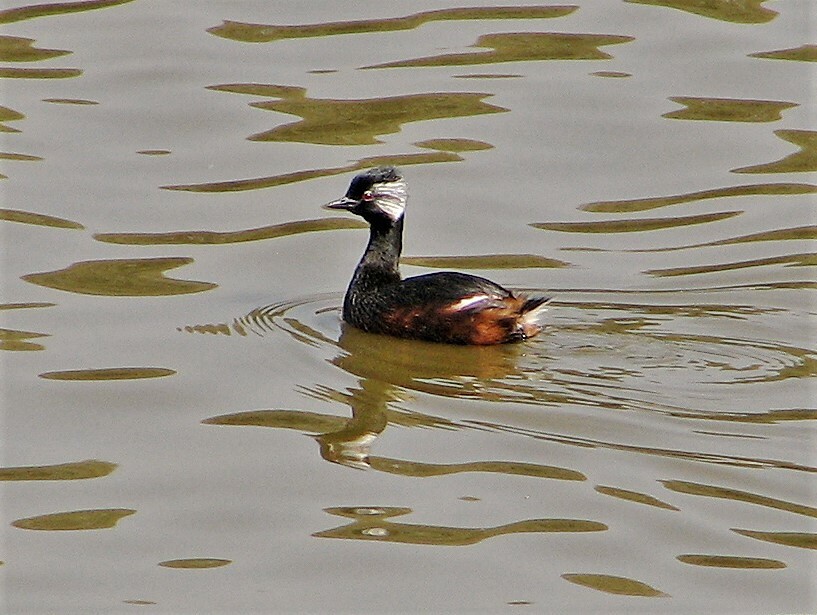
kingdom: Animalia
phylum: Chordata
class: Aves
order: Podicipediformes
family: Podicipedidae
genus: Rollandia
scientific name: Rollandia rolland
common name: White-tufted grebe
